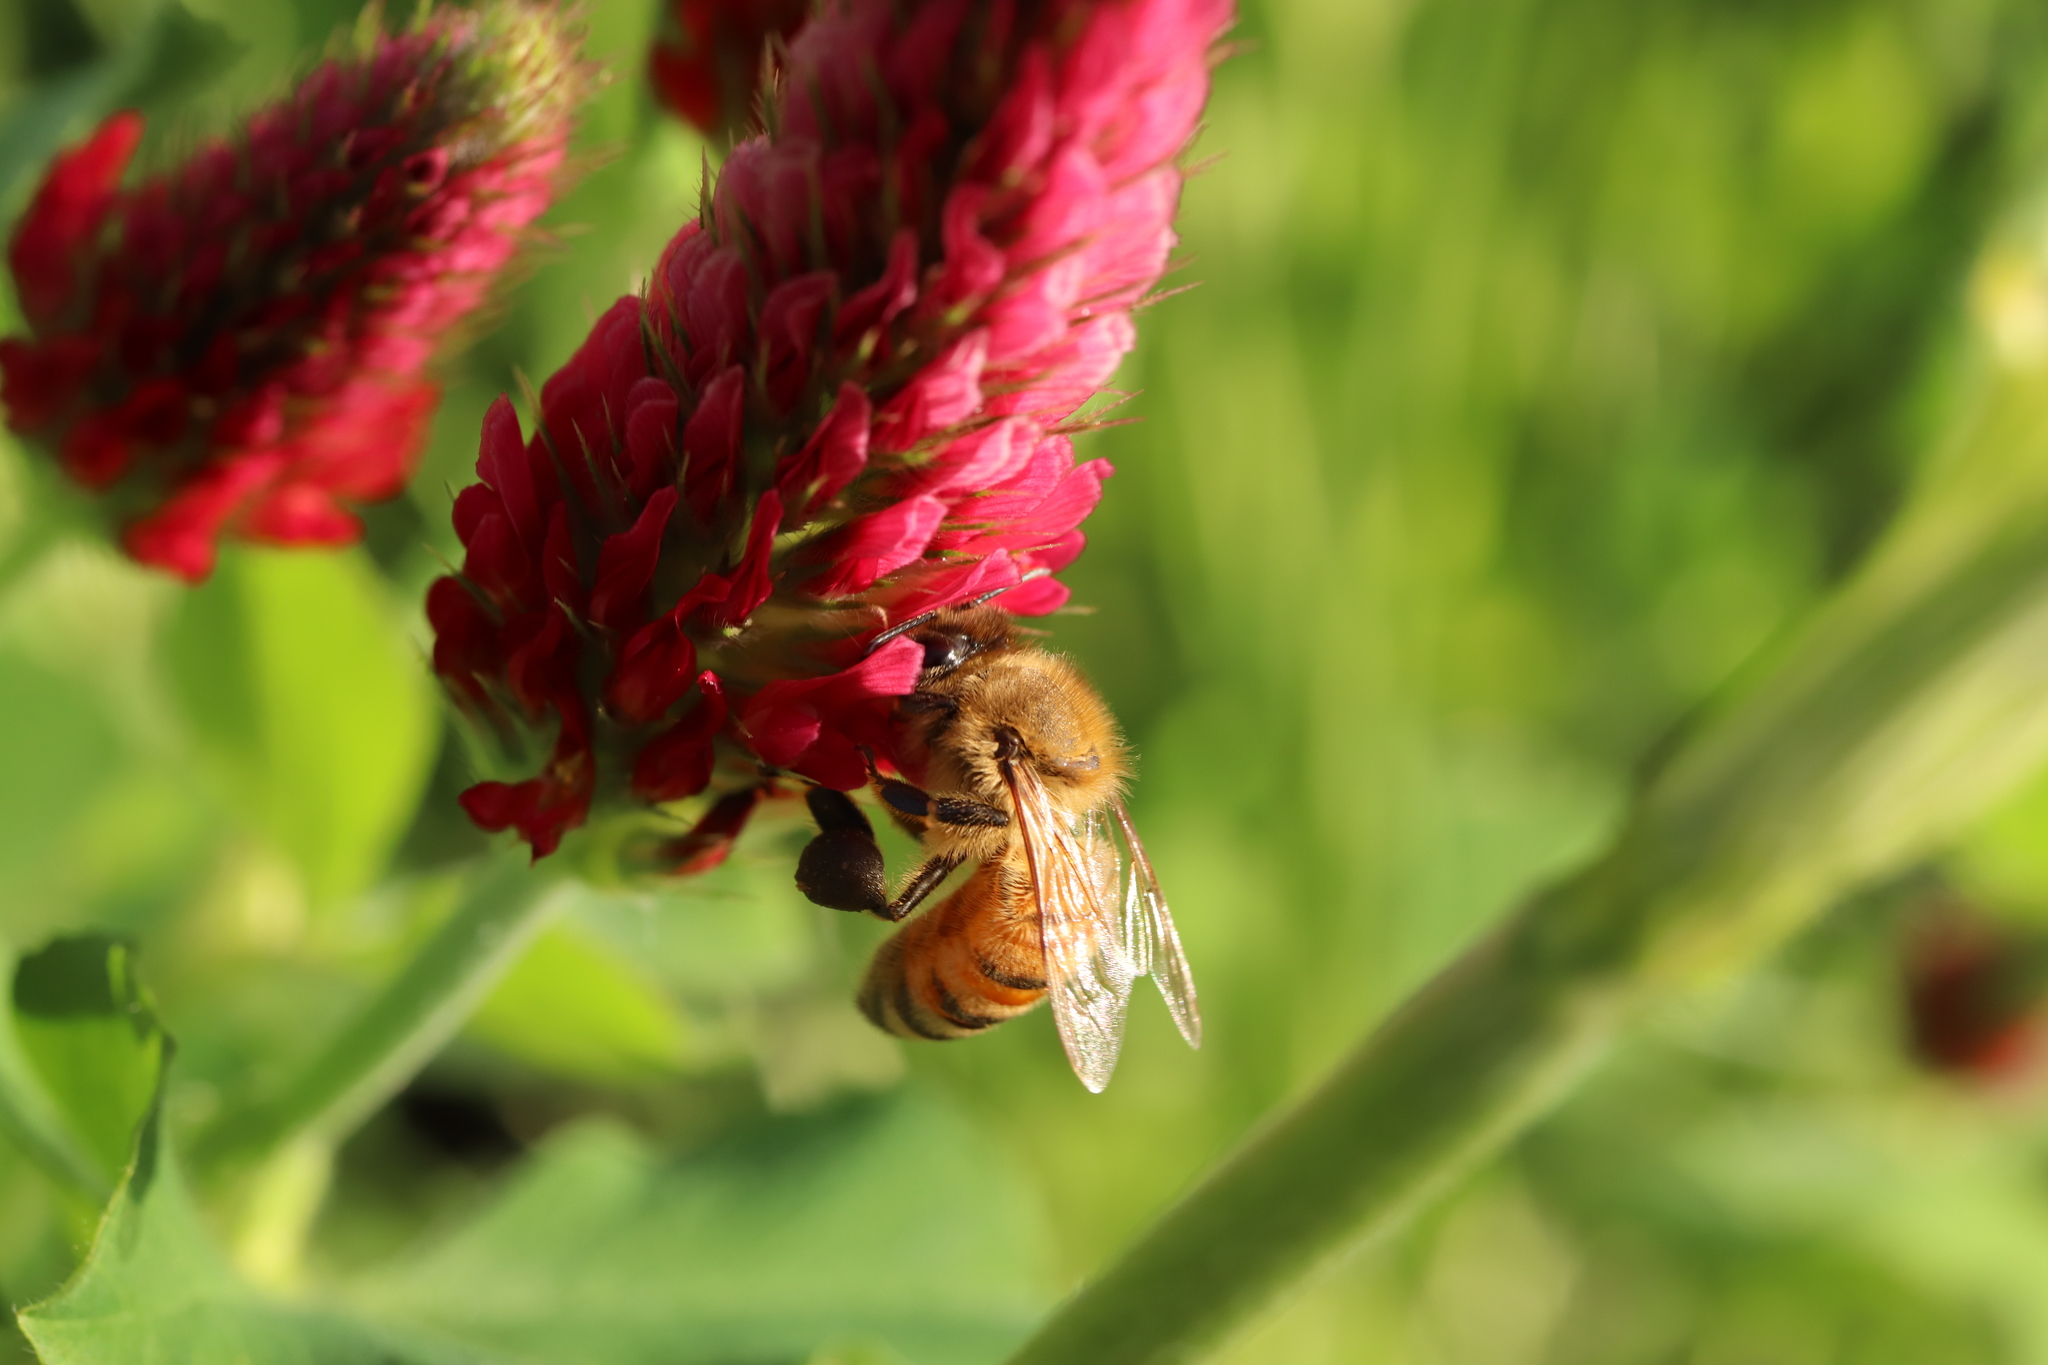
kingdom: Animalia
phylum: Arthropoda
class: Insecta
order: Hymenoptera
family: Apidae
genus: Apis
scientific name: Apis mellifera
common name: Honey bee
